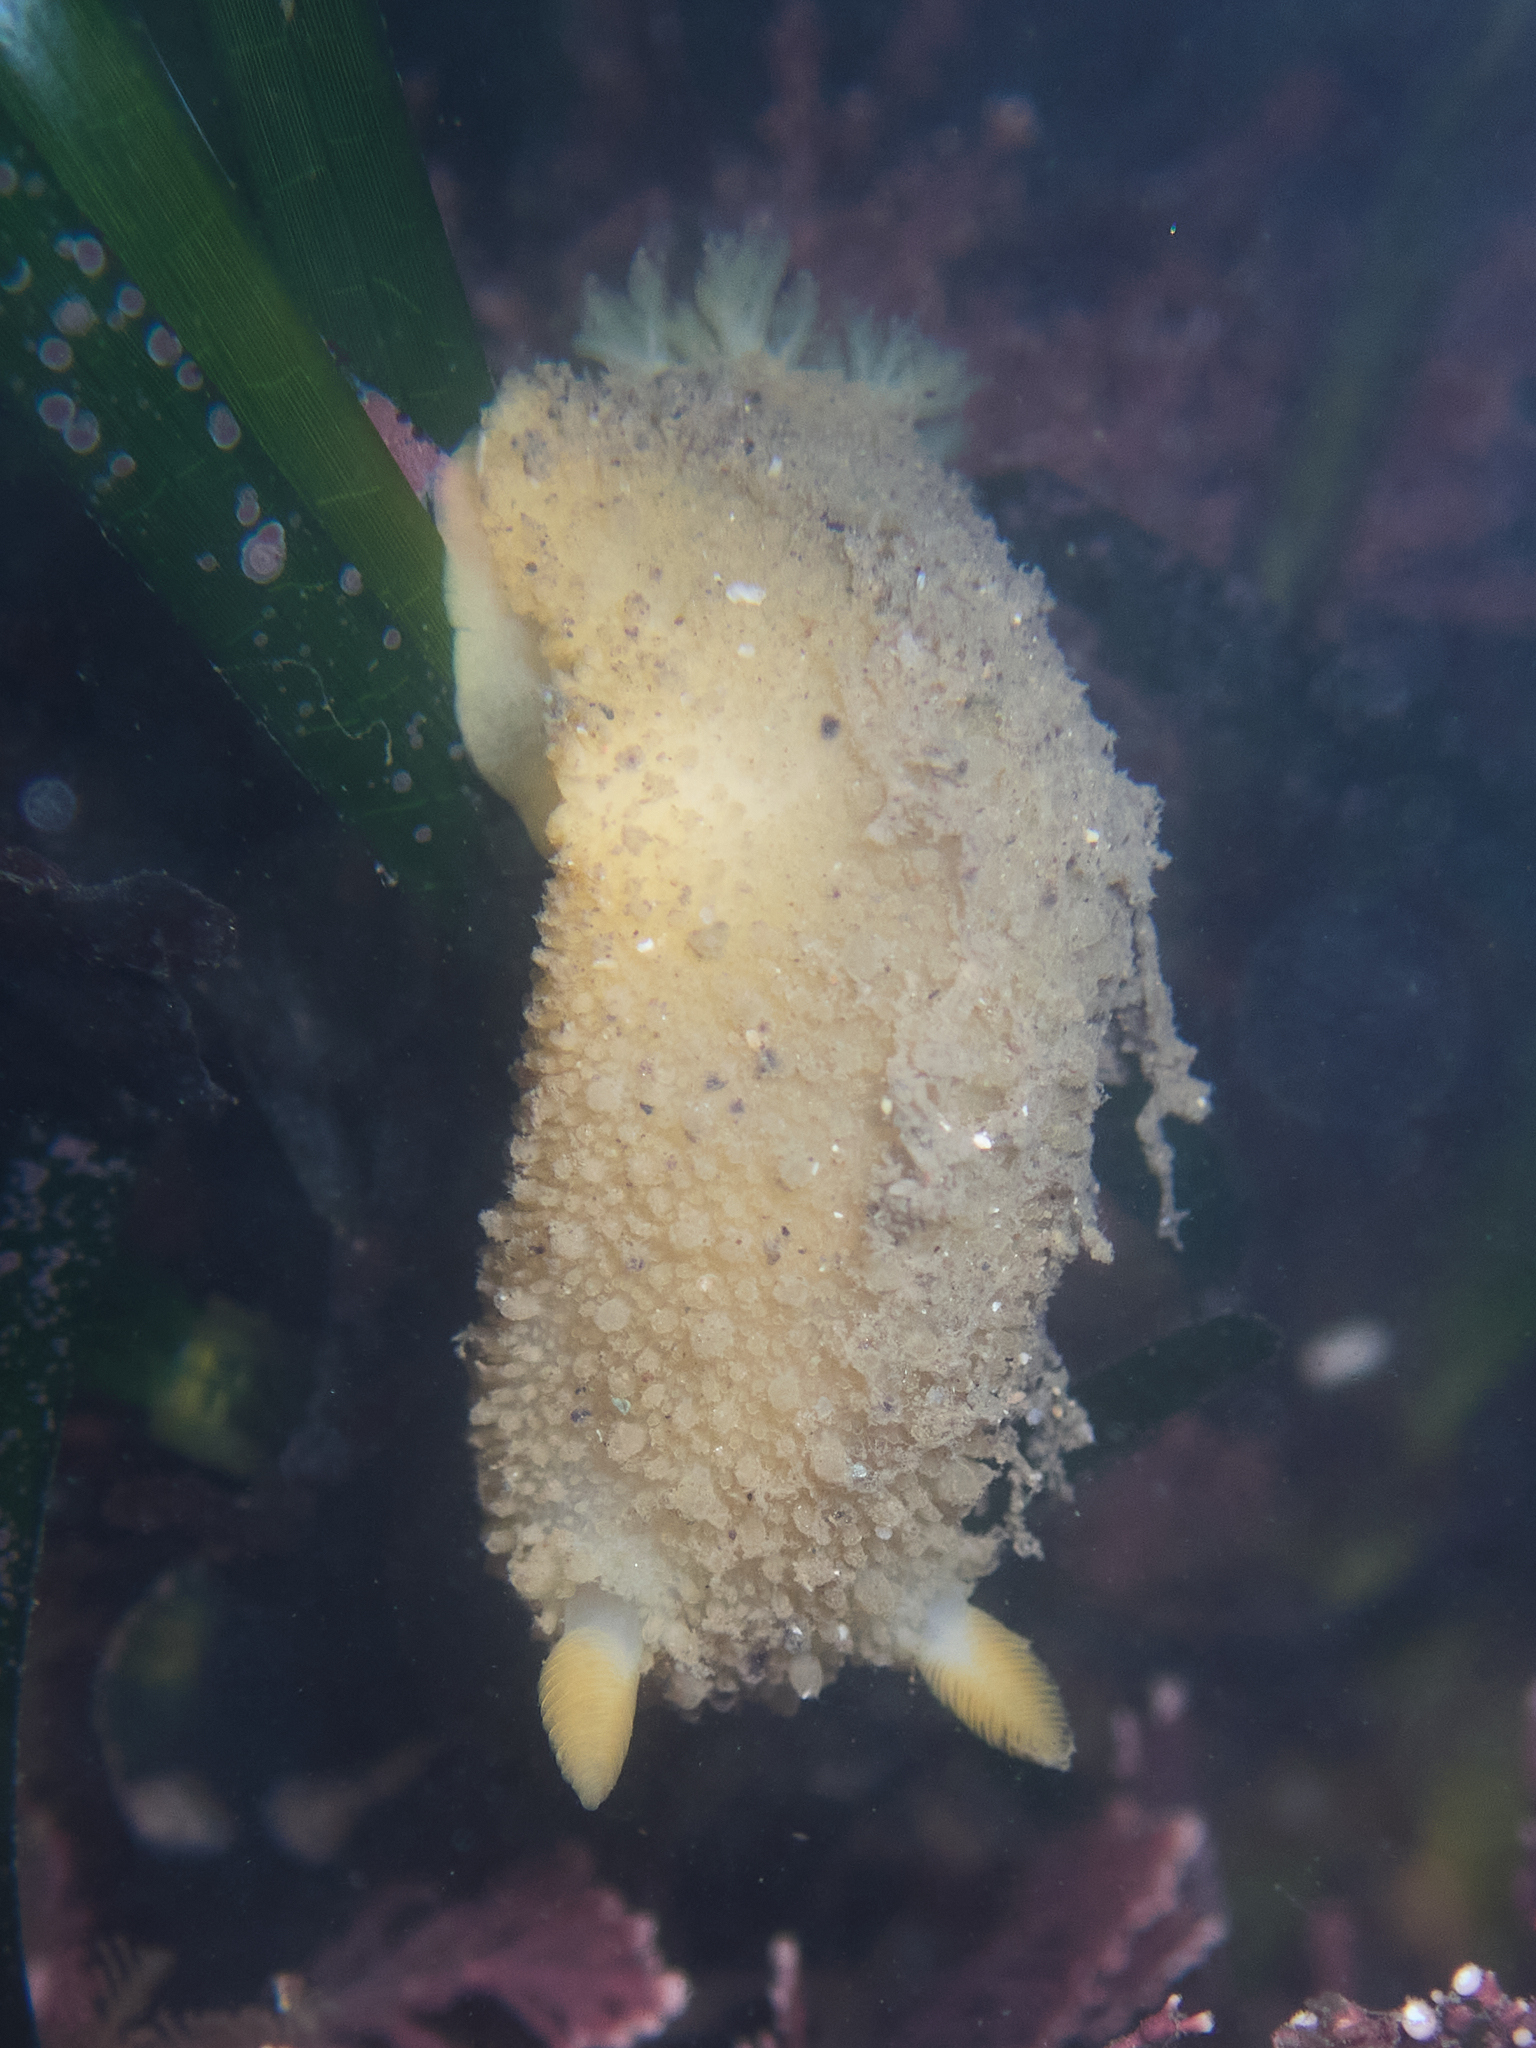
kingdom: Animalia
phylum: Mollusca
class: Gastropoda
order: Nudibranchia
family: Dorididae
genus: Doris
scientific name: Doris montereyensis
